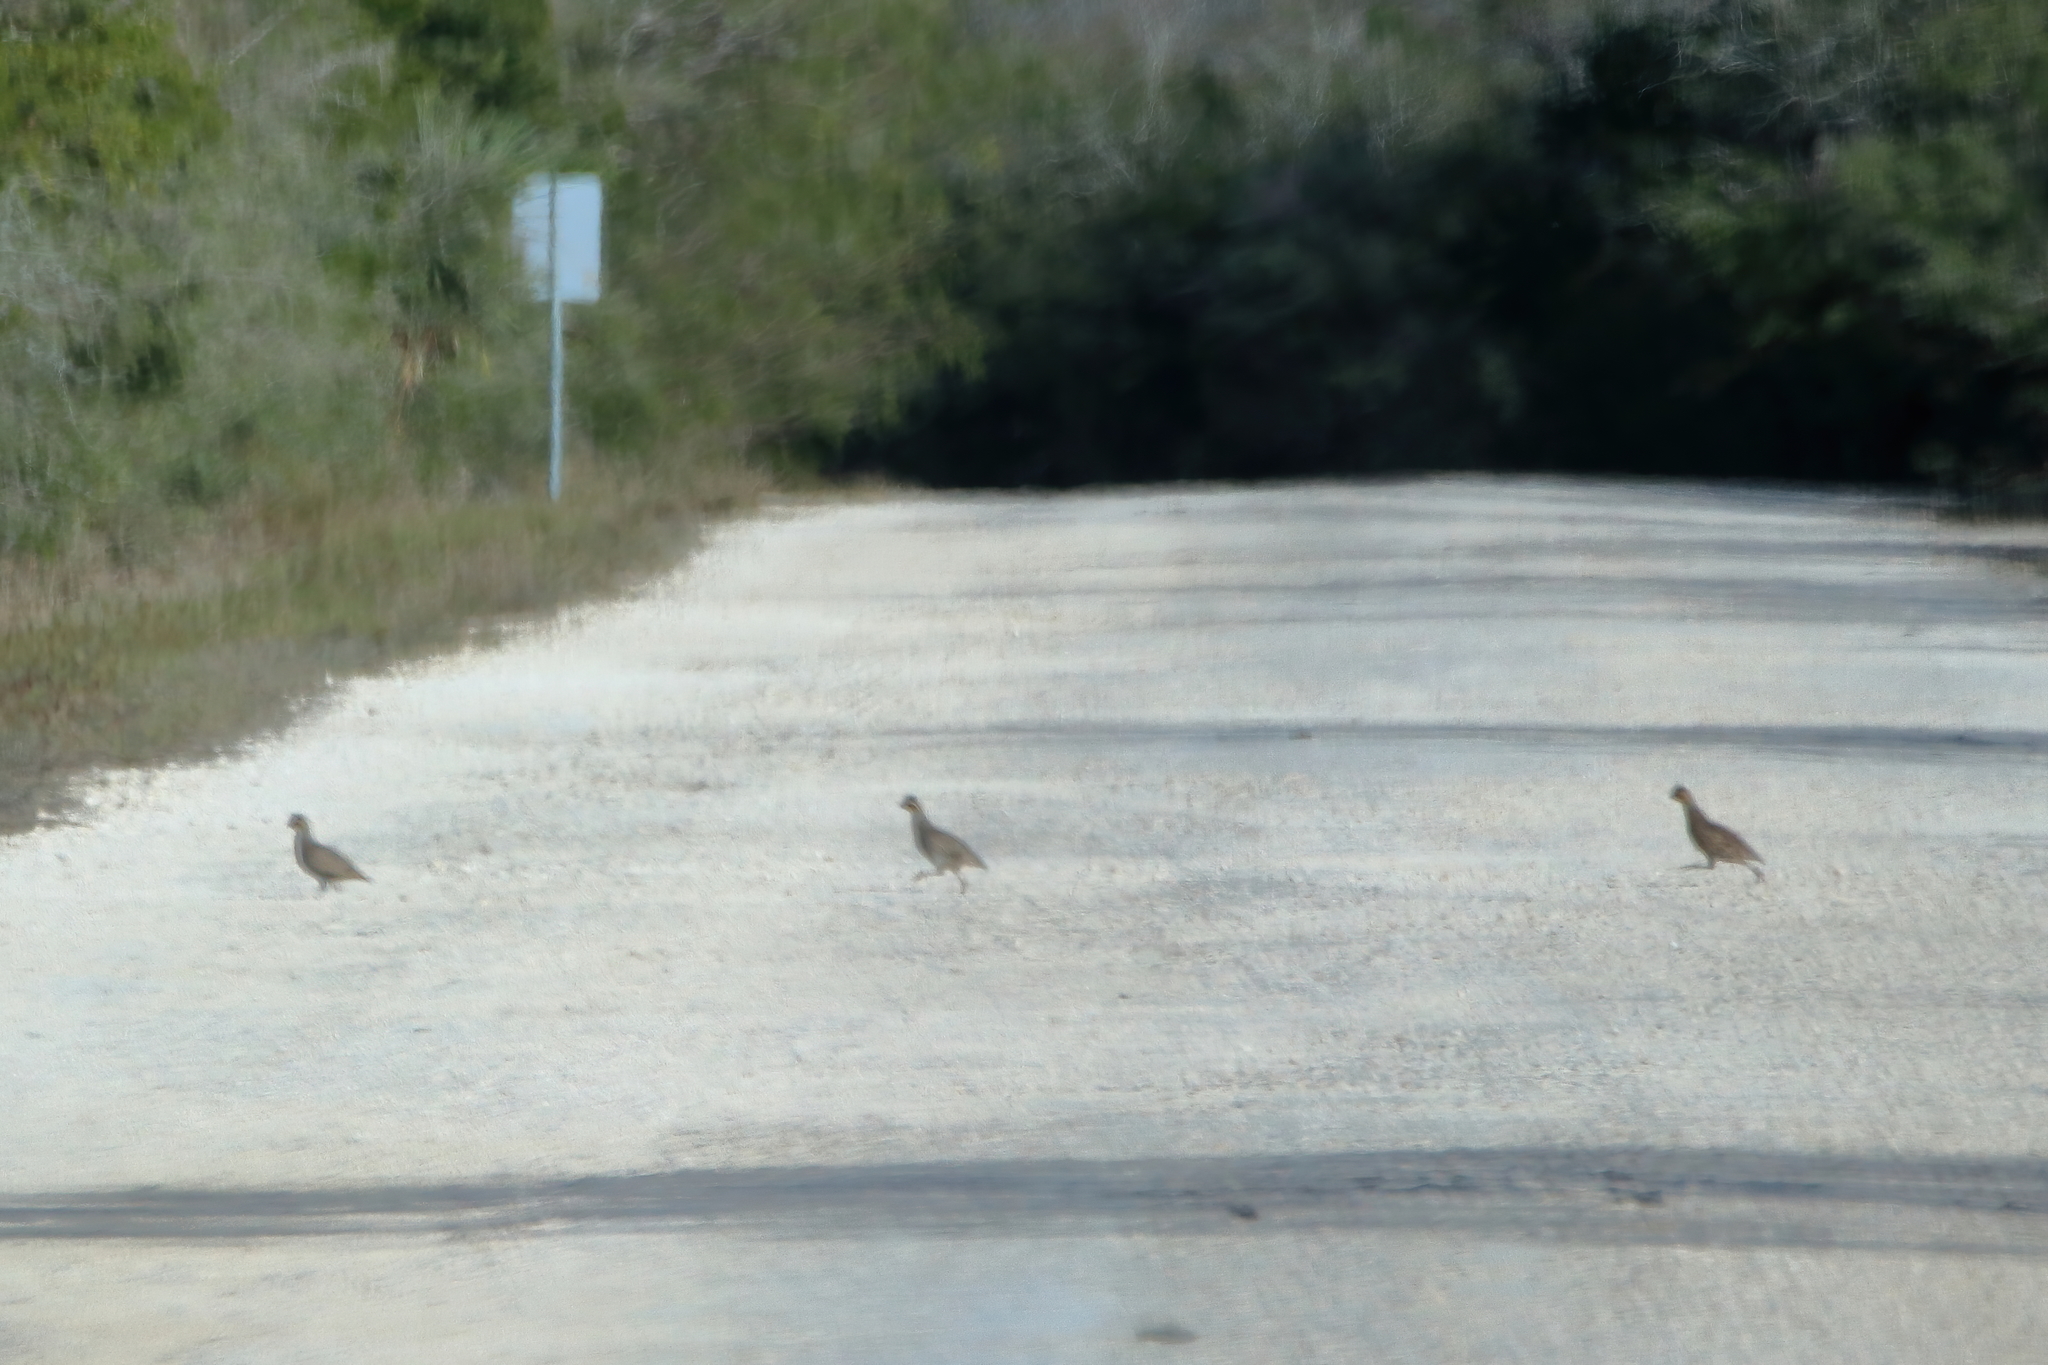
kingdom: Animalia
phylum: Chordata
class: Aves
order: Galliformes
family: Odontophoridae
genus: Colinus
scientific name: Colinus virginianus
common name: Northern bobwhite
